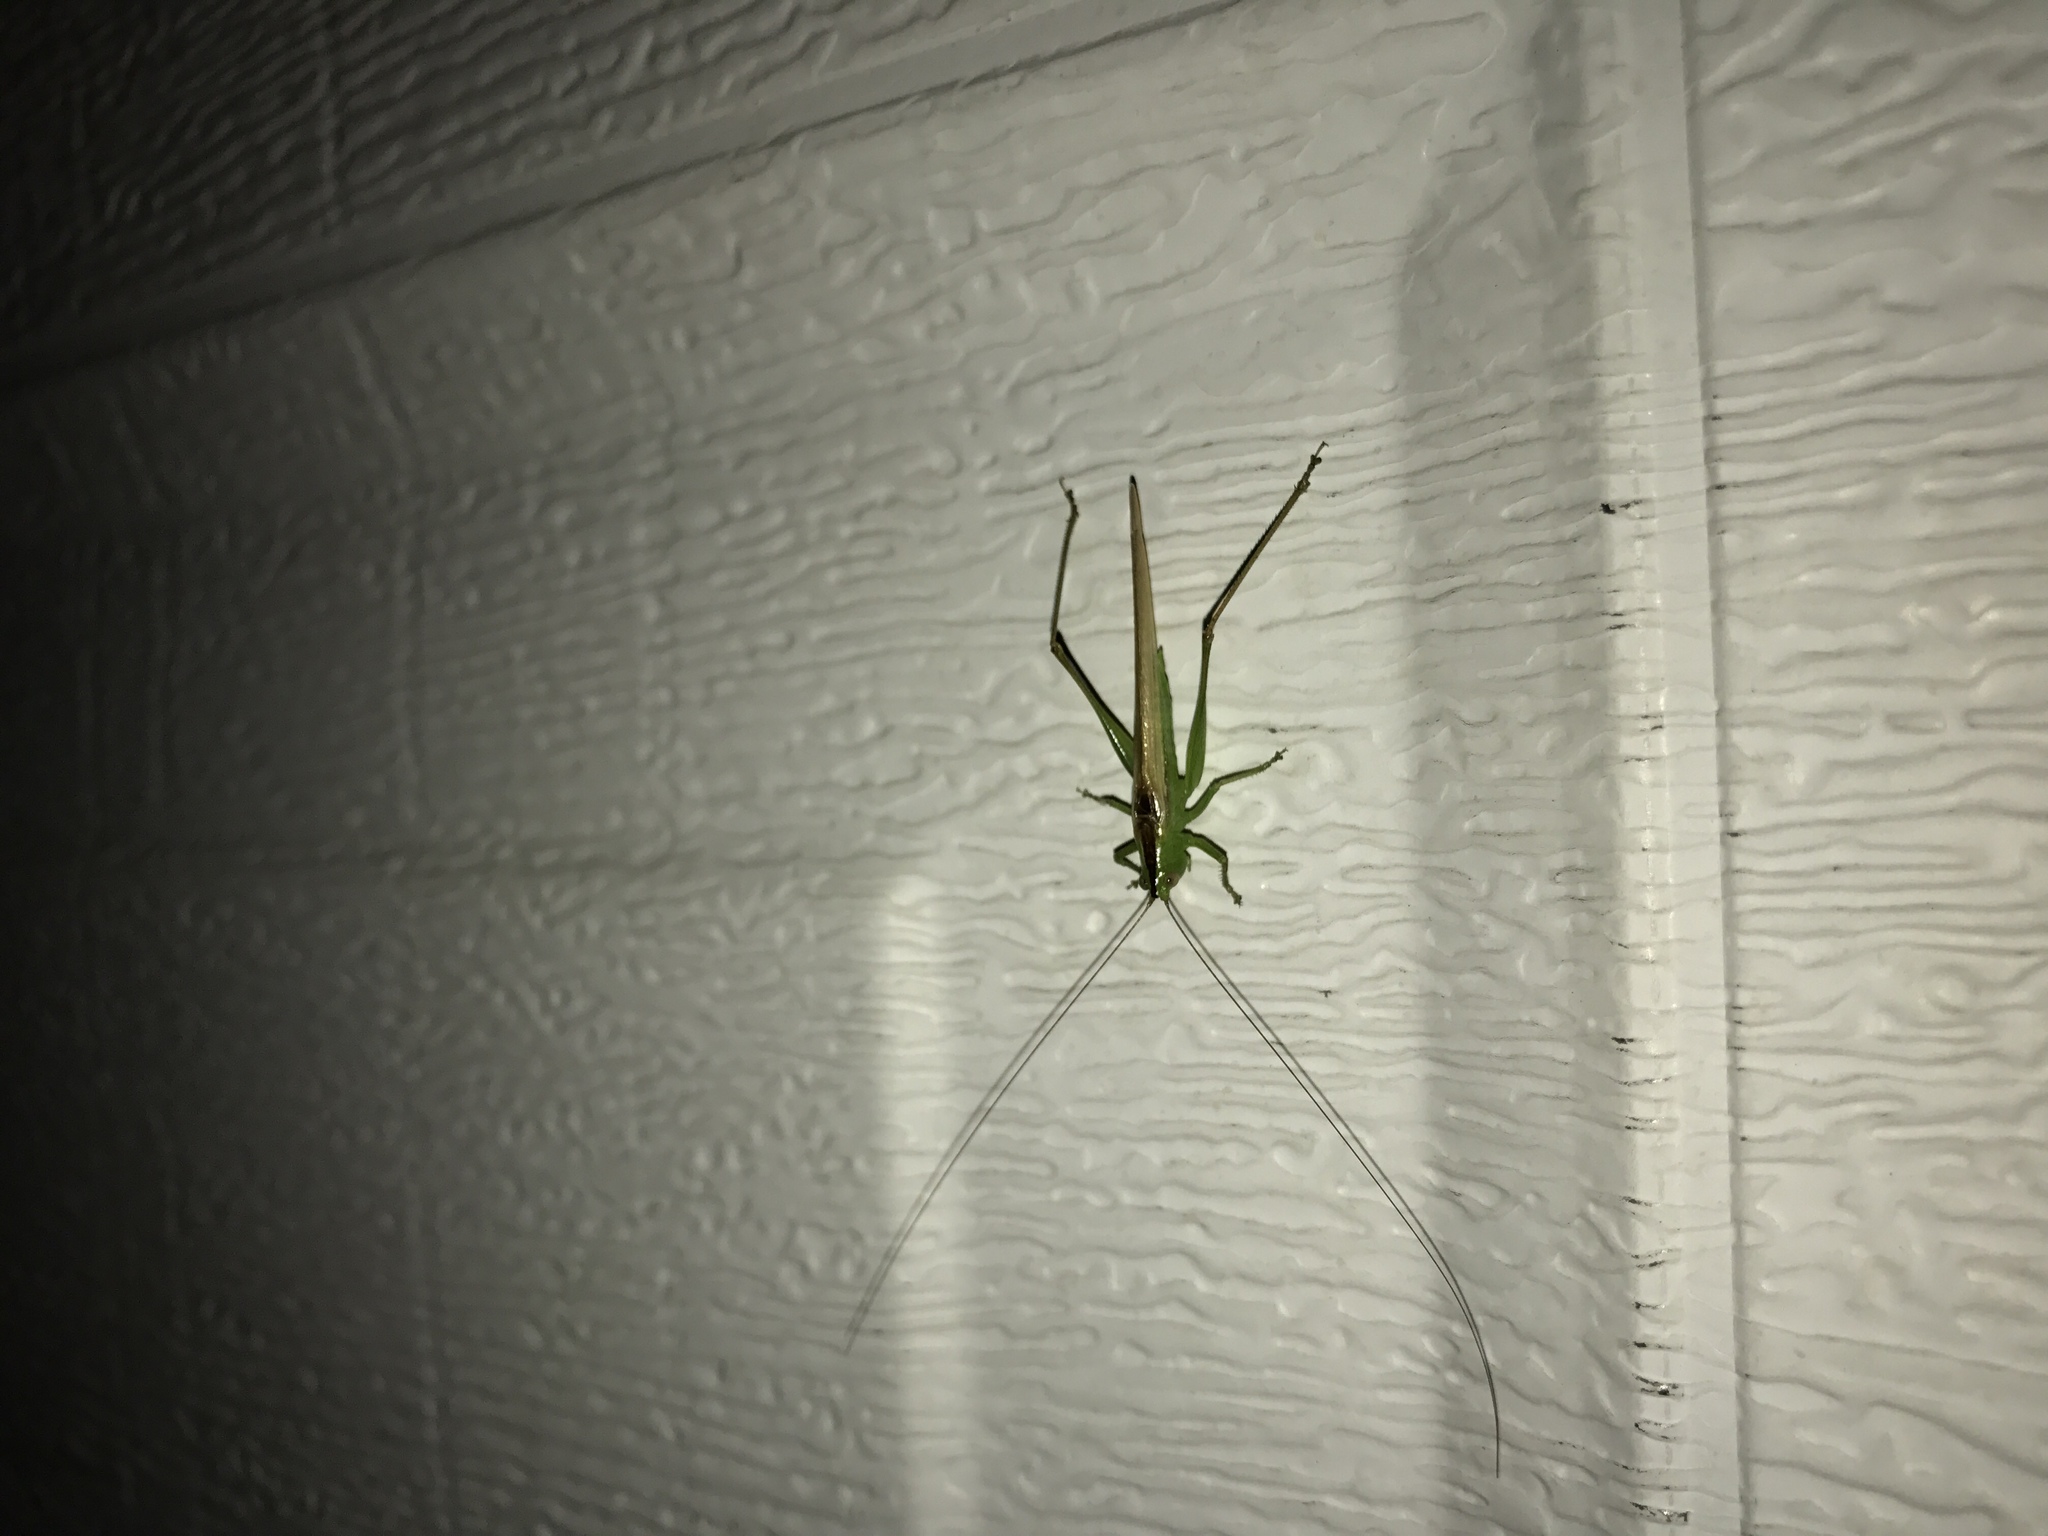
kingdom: Animalia
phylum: Arthropoda
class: Insecta
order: Orthoptera
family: Tettigoniidae
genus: Conocephalus
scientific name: Conocephalus fasciatus
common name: Slender meadow katydid
